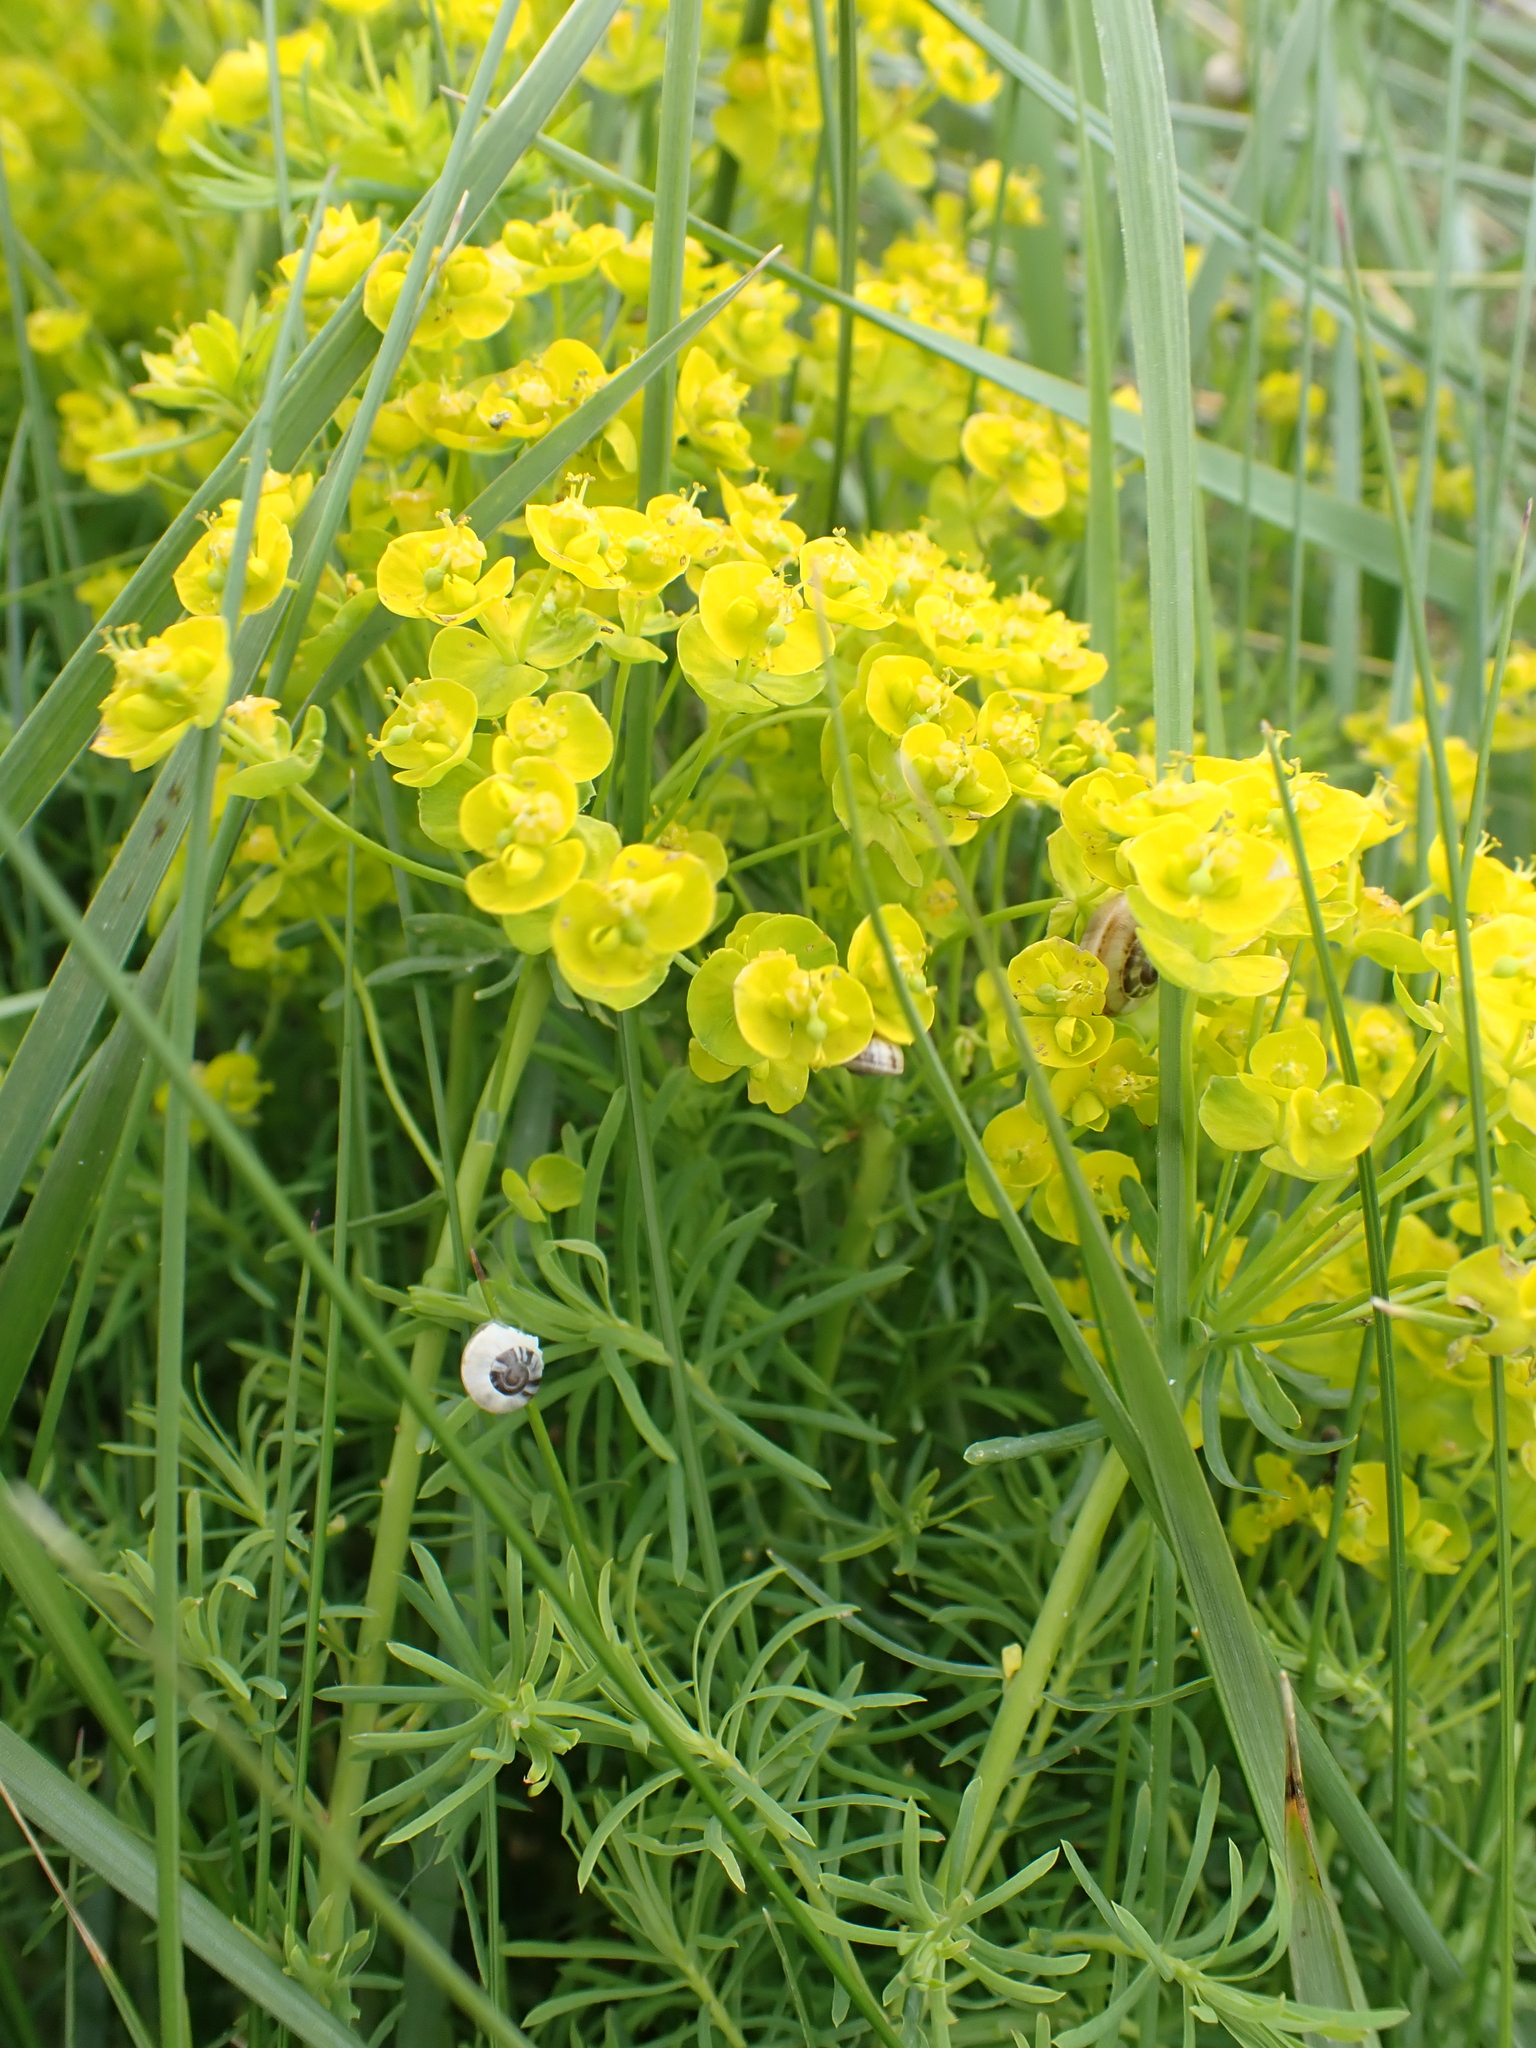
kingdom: Plantae
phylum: Tracheophyta
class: Magnoliopsida
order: Malpighiales
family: Euphorbiaceae
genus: Euphorbia
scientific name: Euphorbia cyparissias
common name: Cypress spurge
